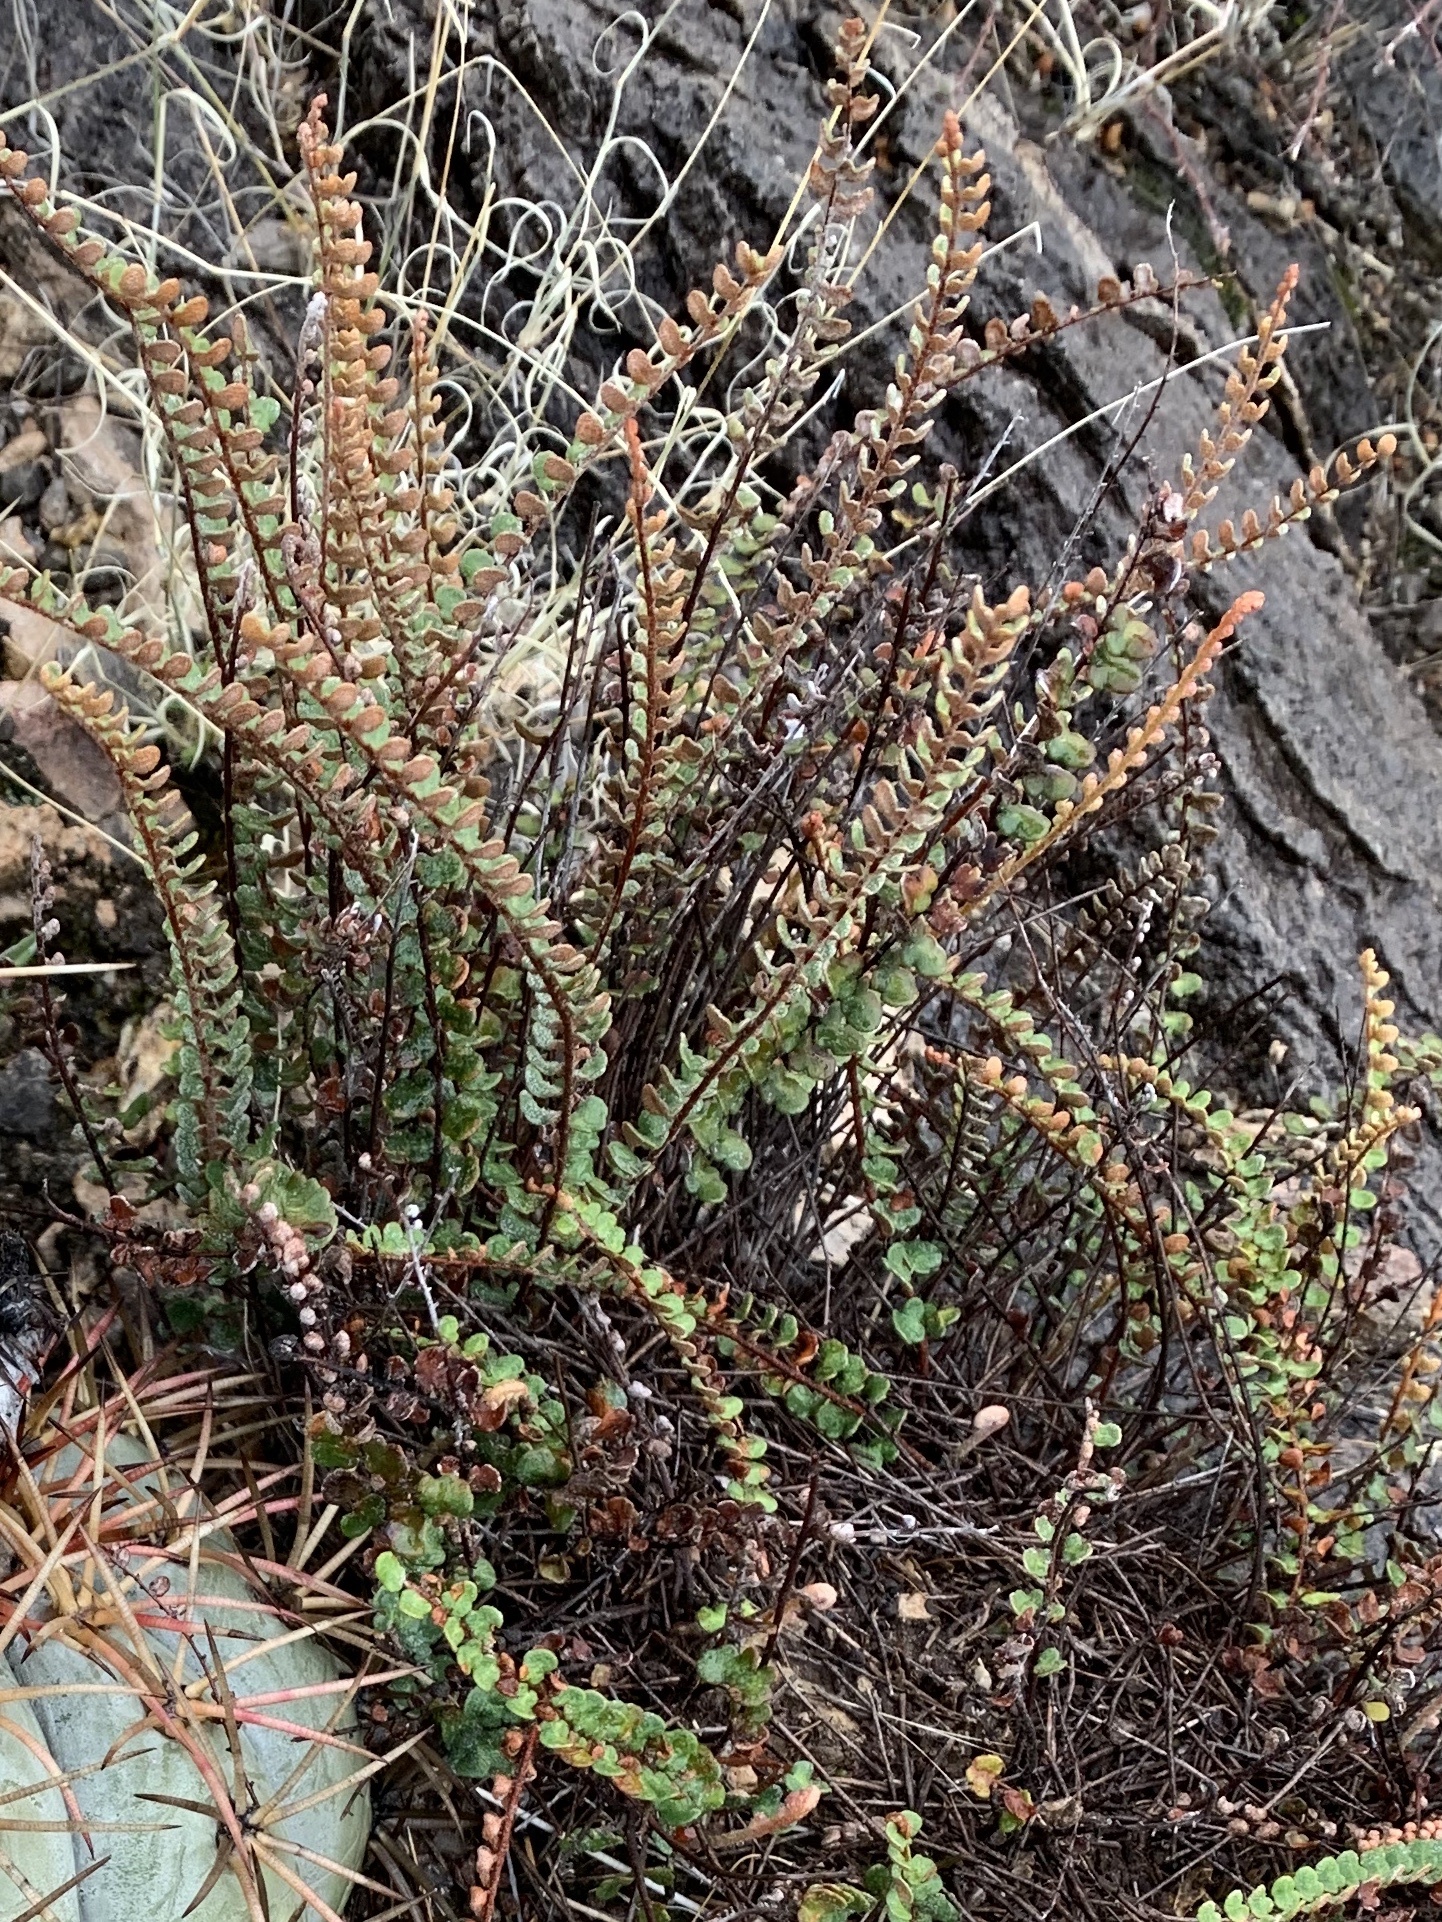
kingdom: Plantae
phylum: Tracheophyta
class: Polypodiopsida
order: Polypodiales
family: Pteridaceae
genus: Astrolepis
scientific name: Astrolepis cochisensis
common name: Scaly cloak fern
